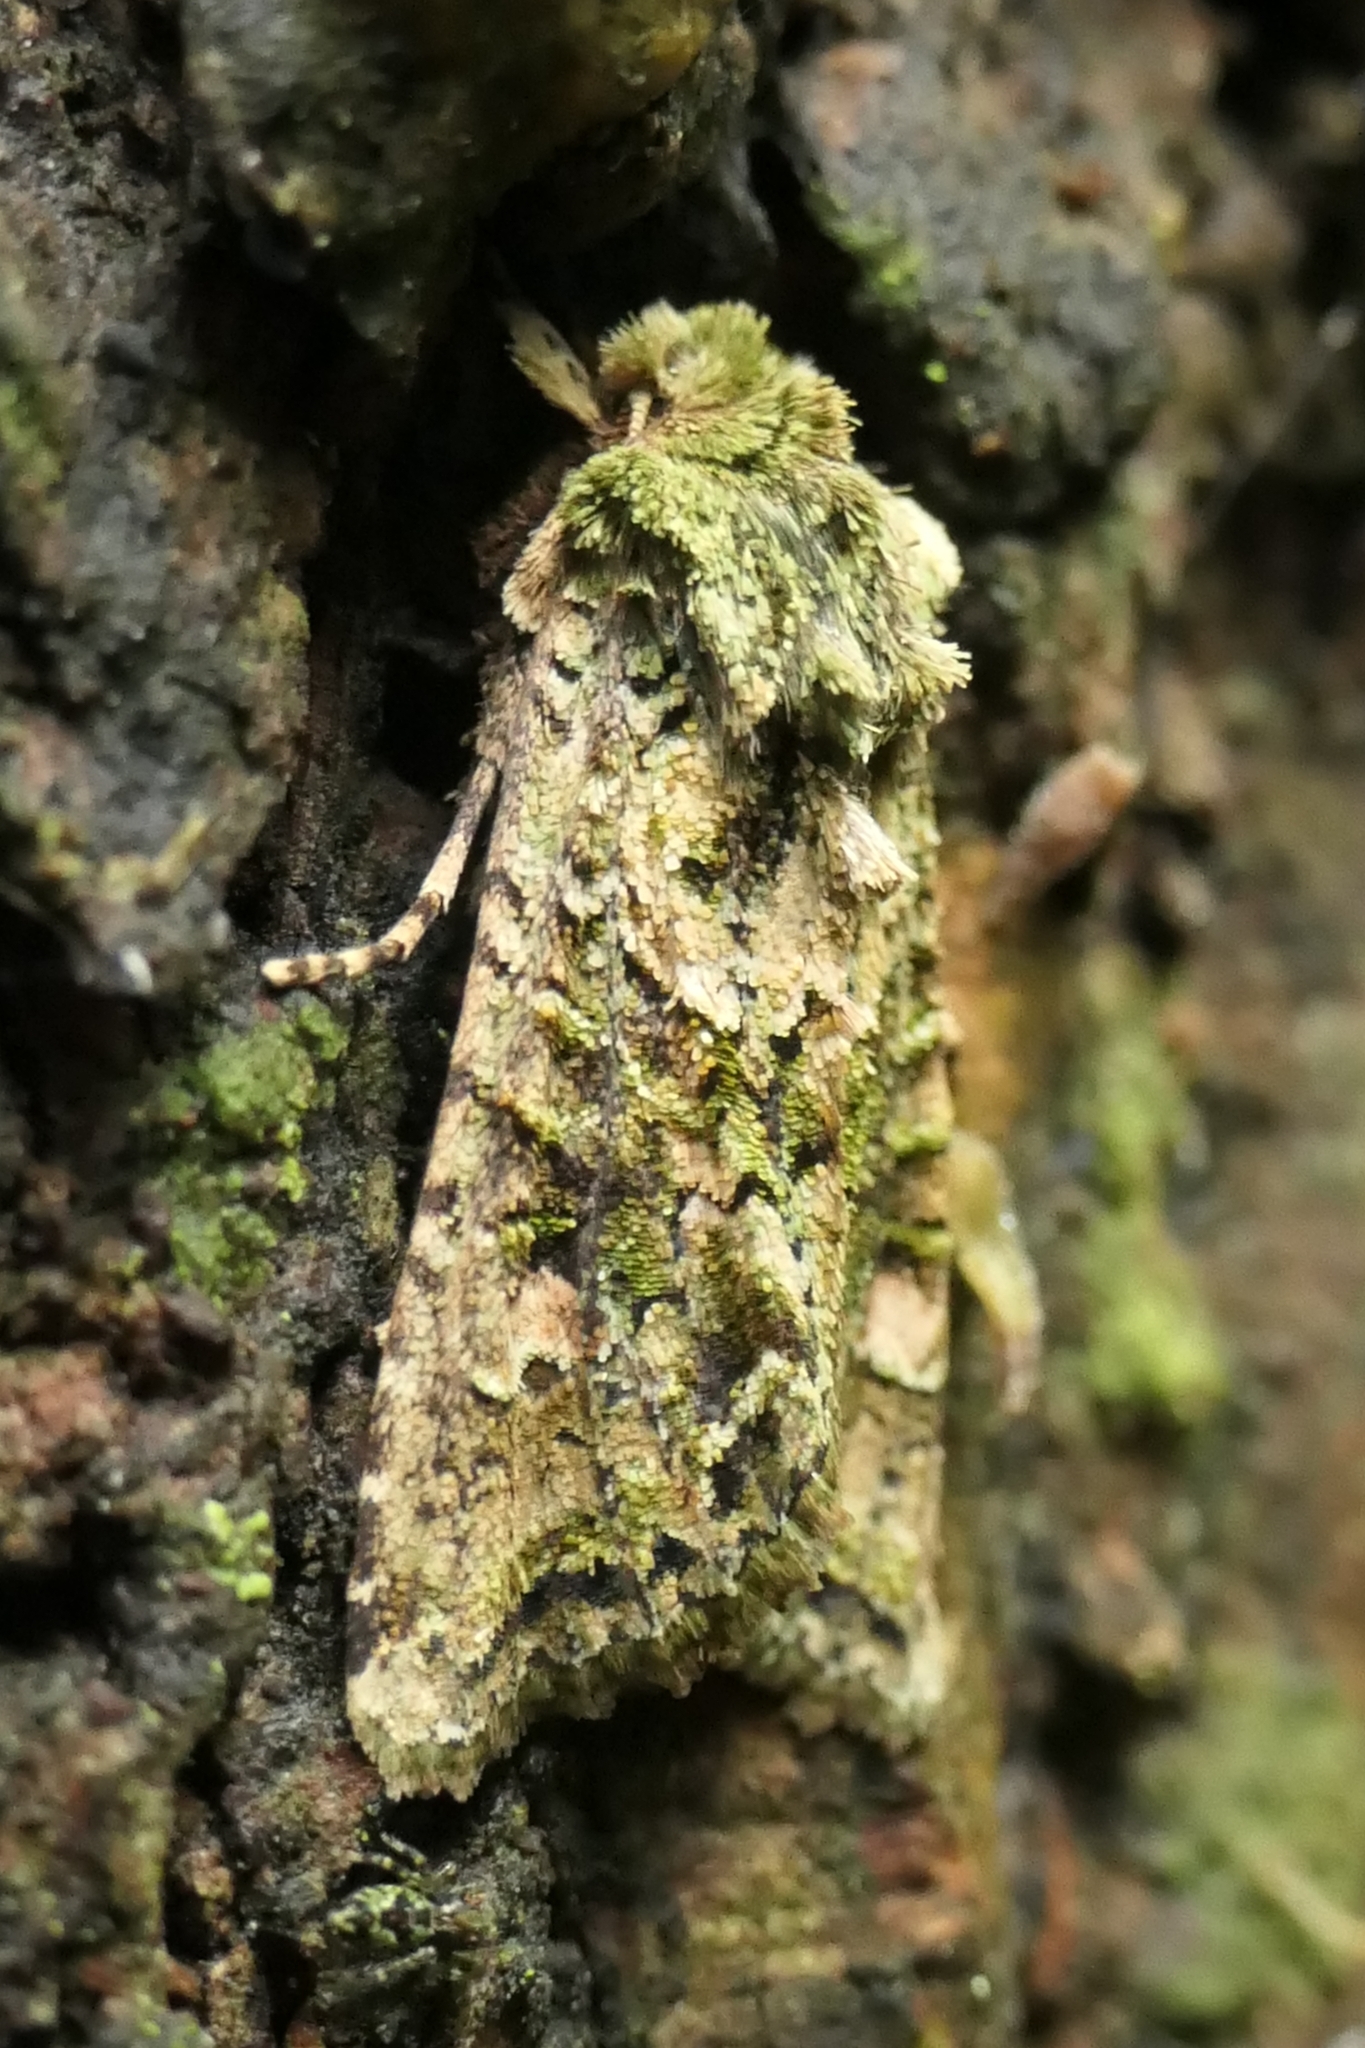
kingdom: Animalia
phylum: Arthropoda
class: Insecta
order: Lepidoptera
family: Noctuidae
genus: Ichneutica
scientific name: Ichneutica
